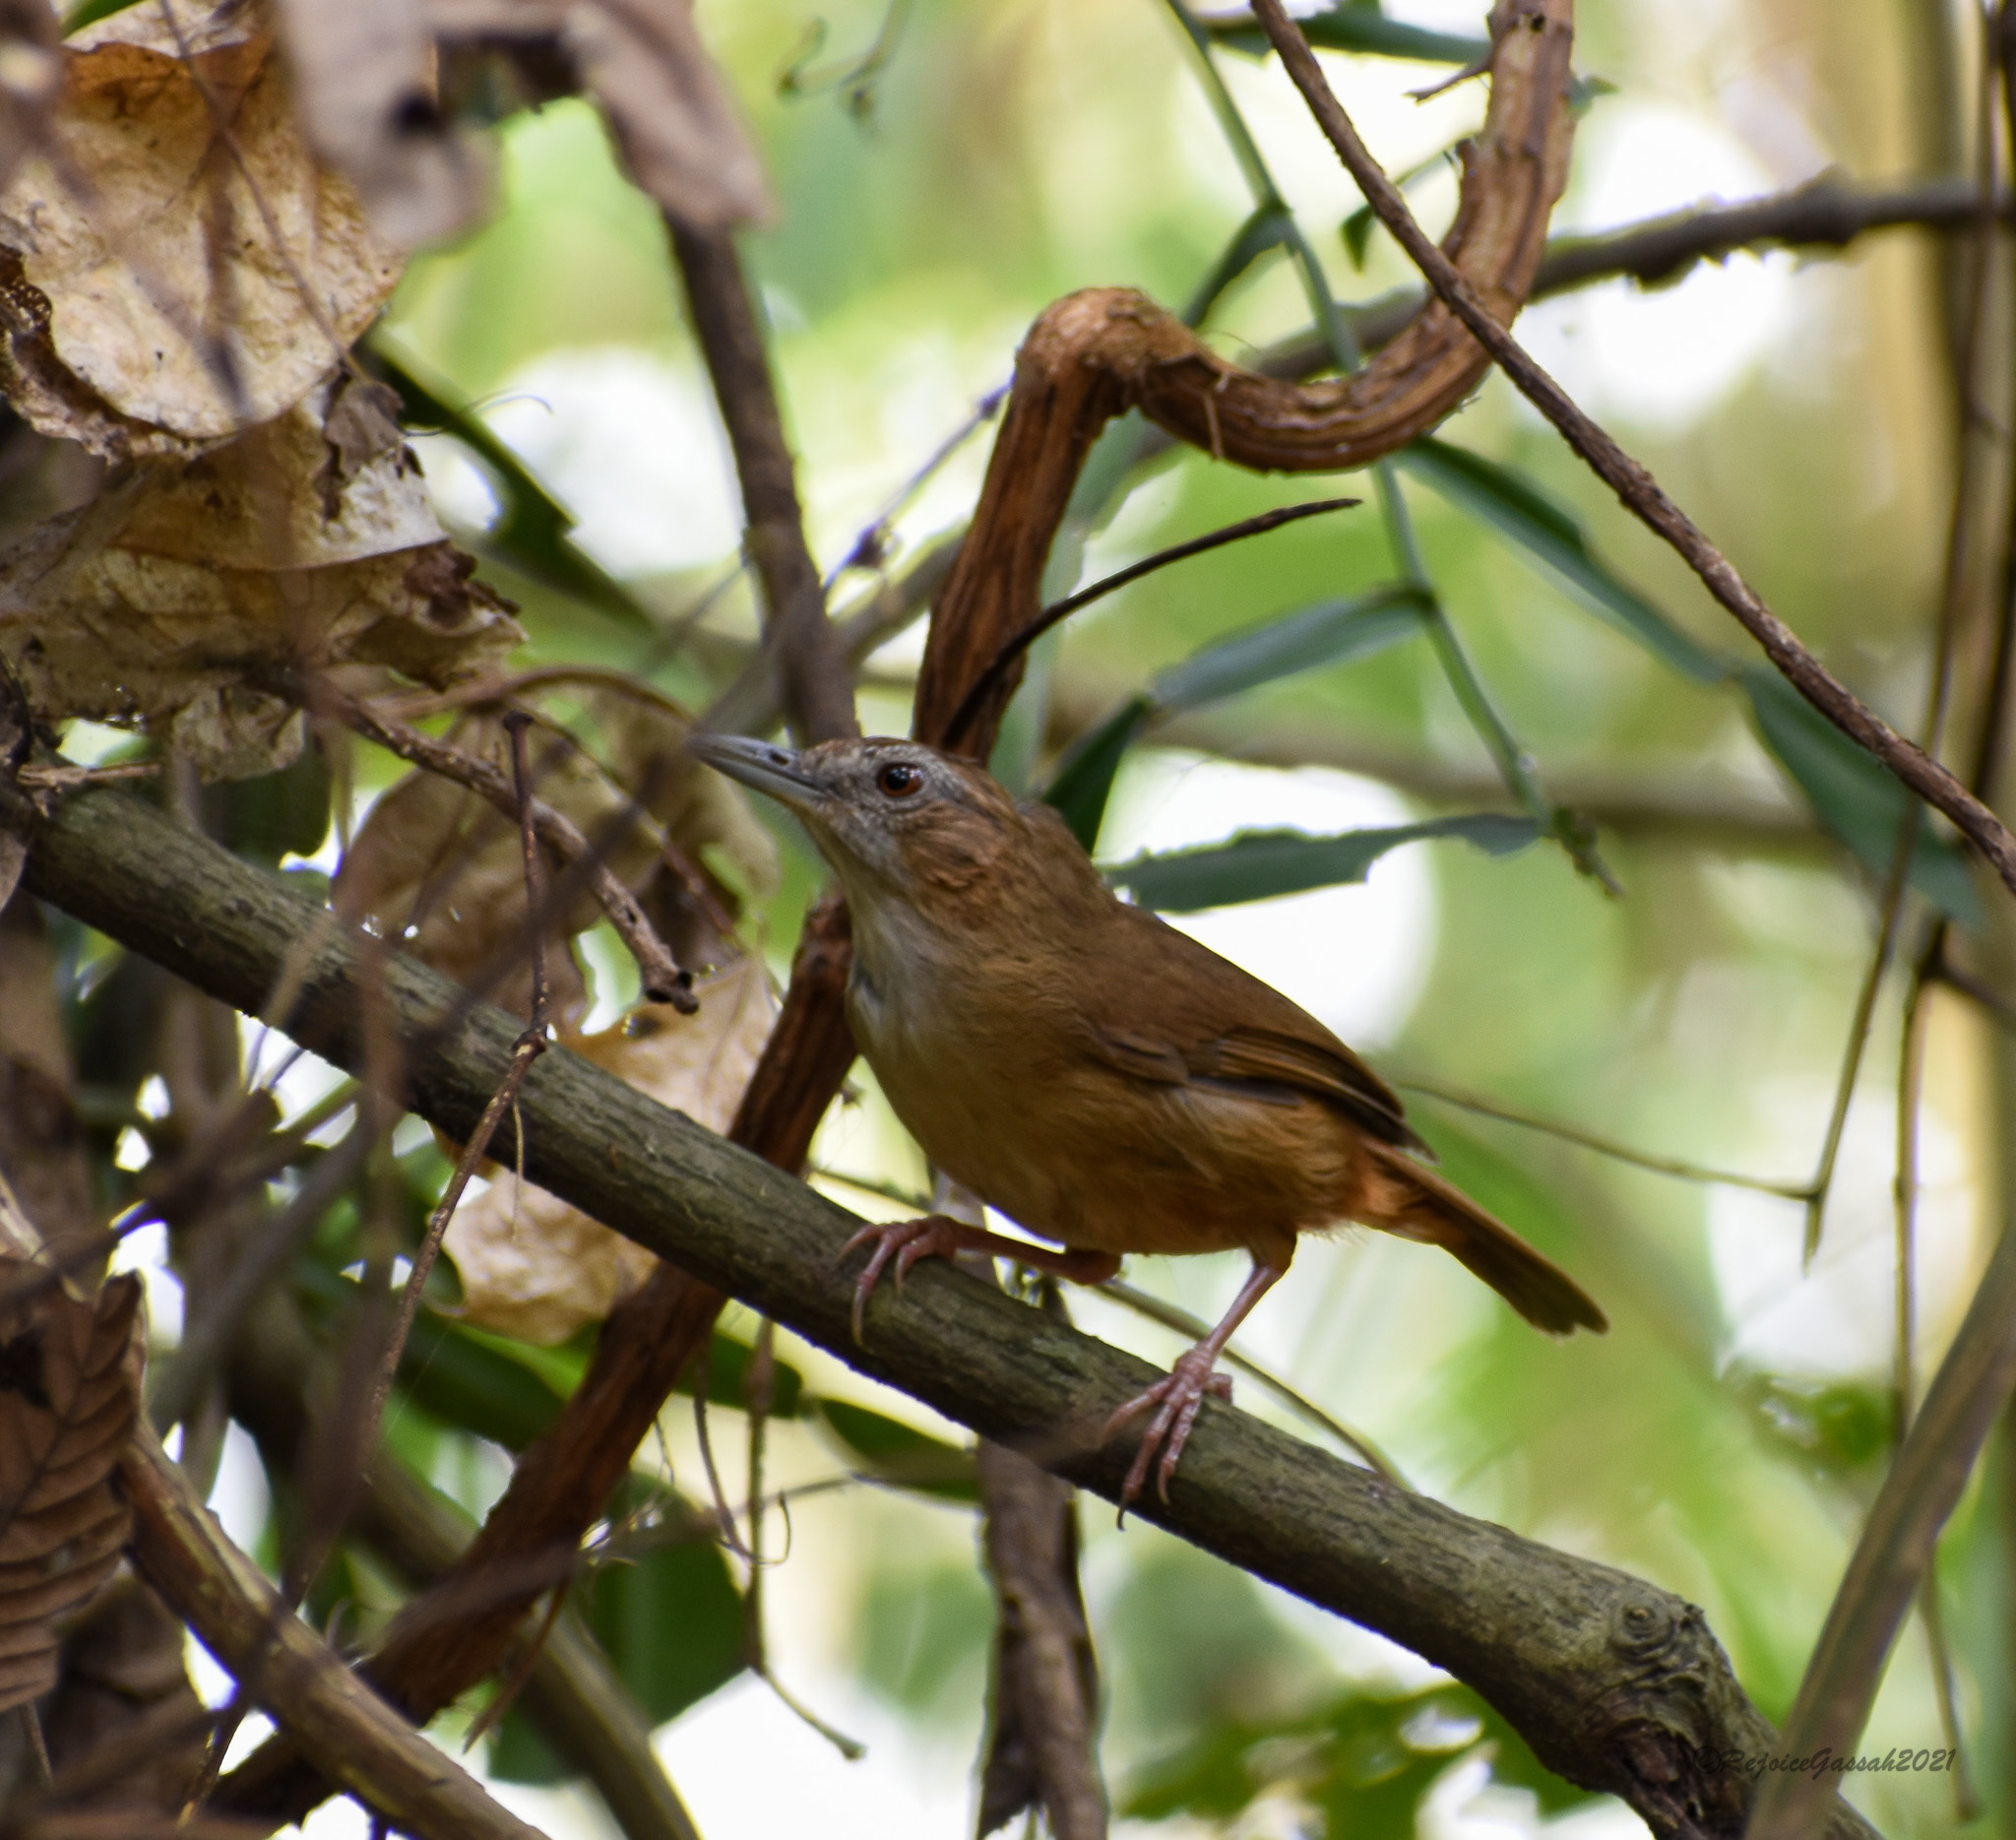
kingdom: Animalia
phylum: Chordata
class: Aves
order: Passeriformes
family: Pellorneidae
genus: Malacocincla
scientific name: Malacocincla abbotti
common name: Abbott's babbler
